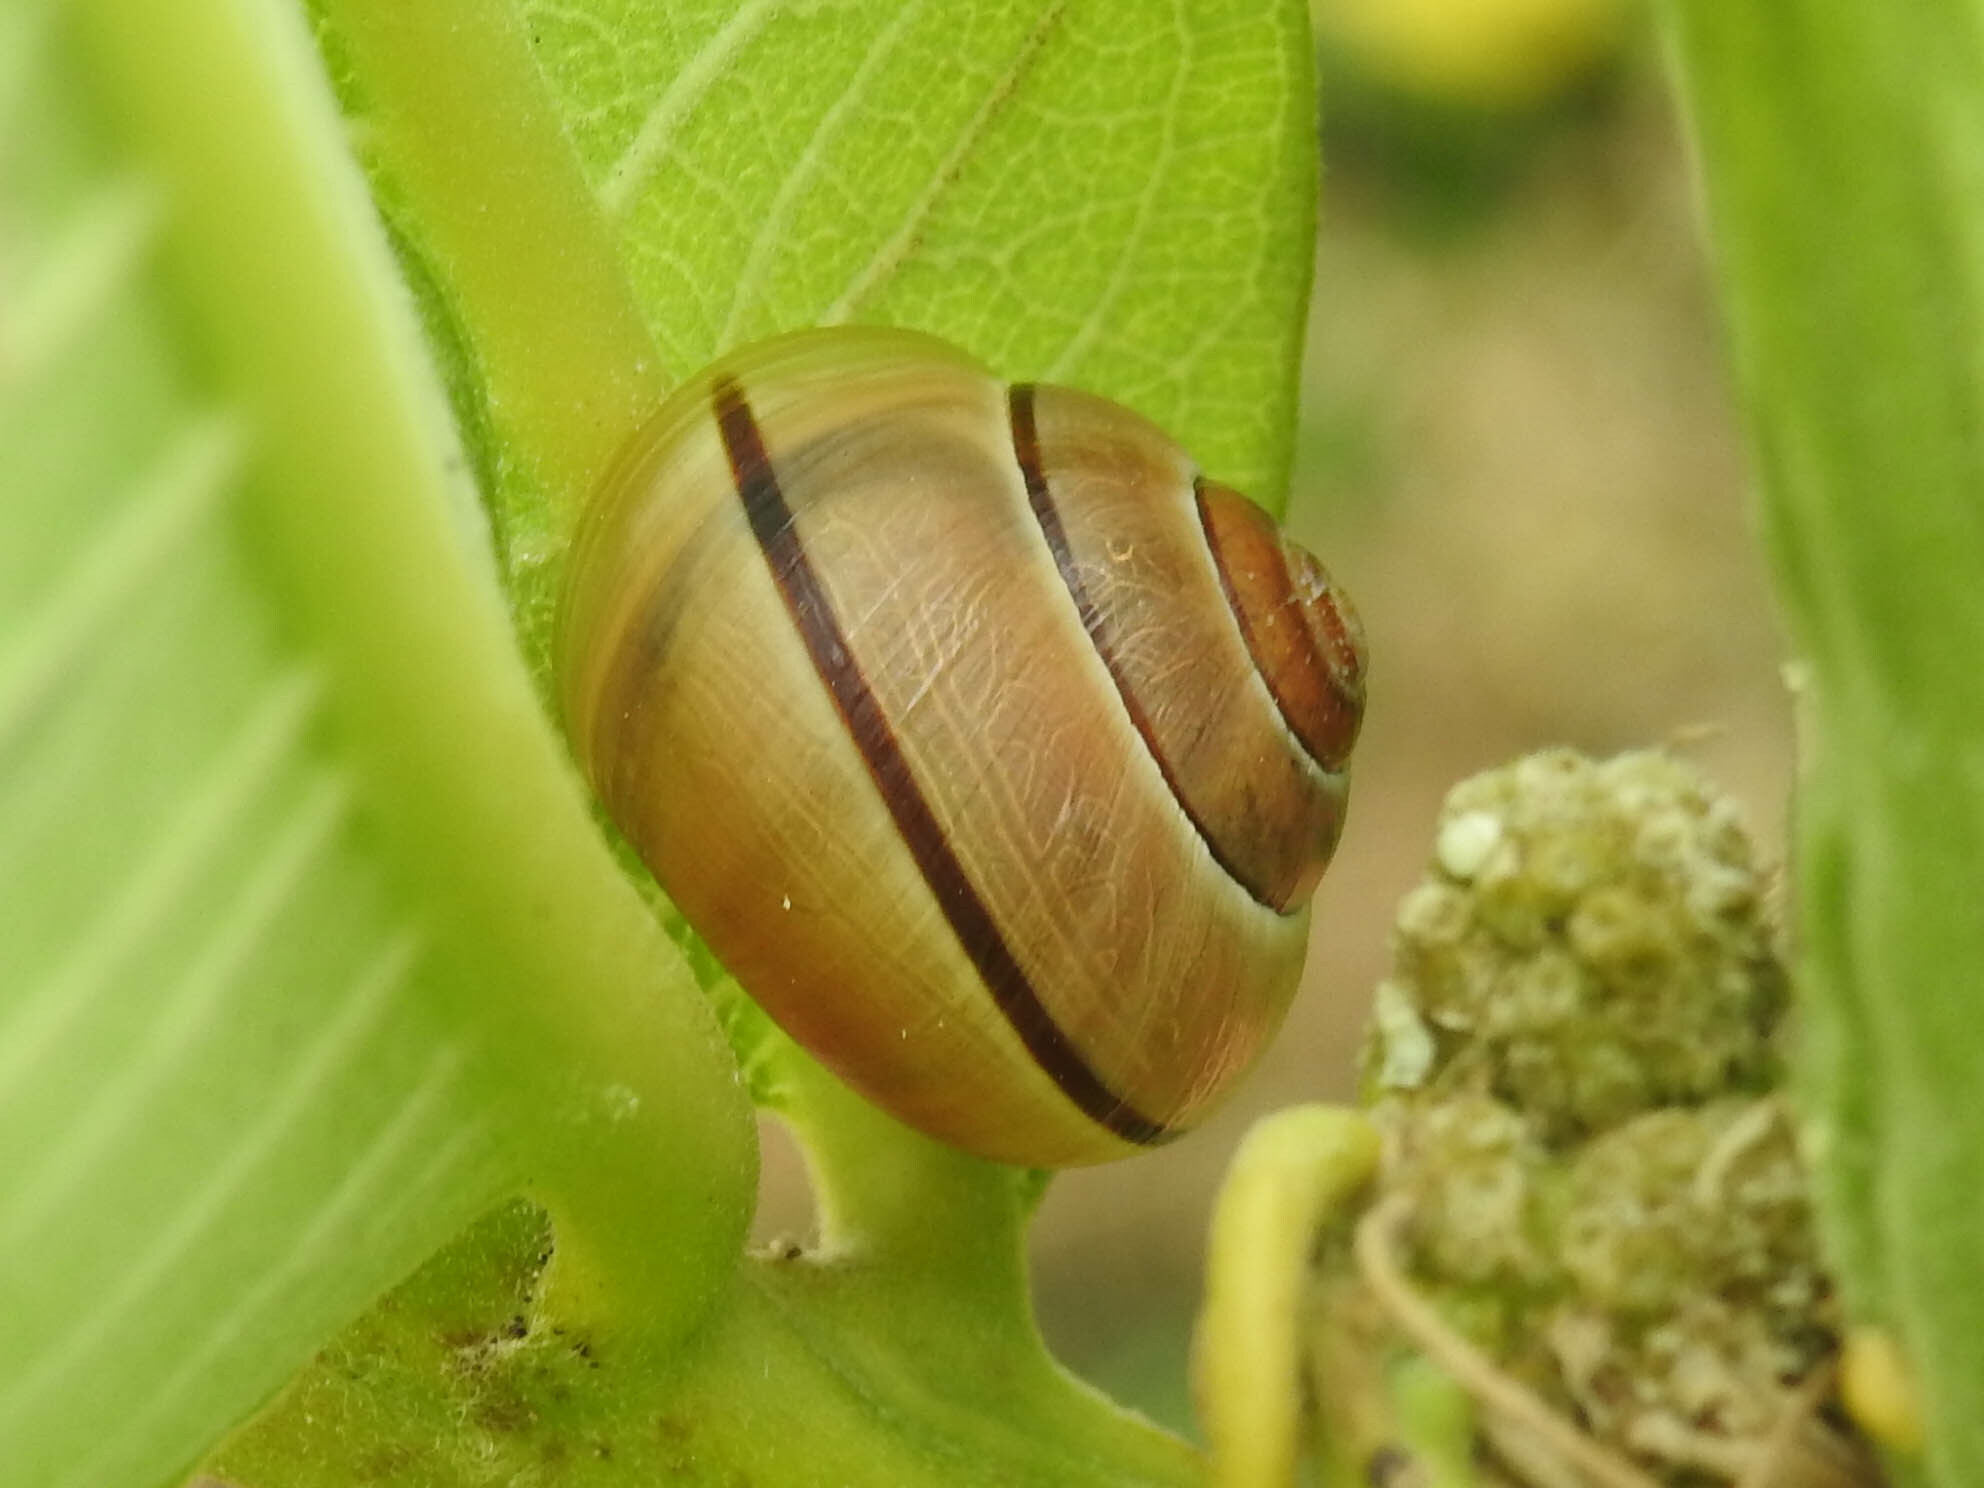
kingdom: Animalia
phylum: Mollusca
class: Gastropoda
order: Stylommatophora
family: Helicidae
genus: Cepaea
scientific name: Cepaea nemoralis
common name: Grovesnail
